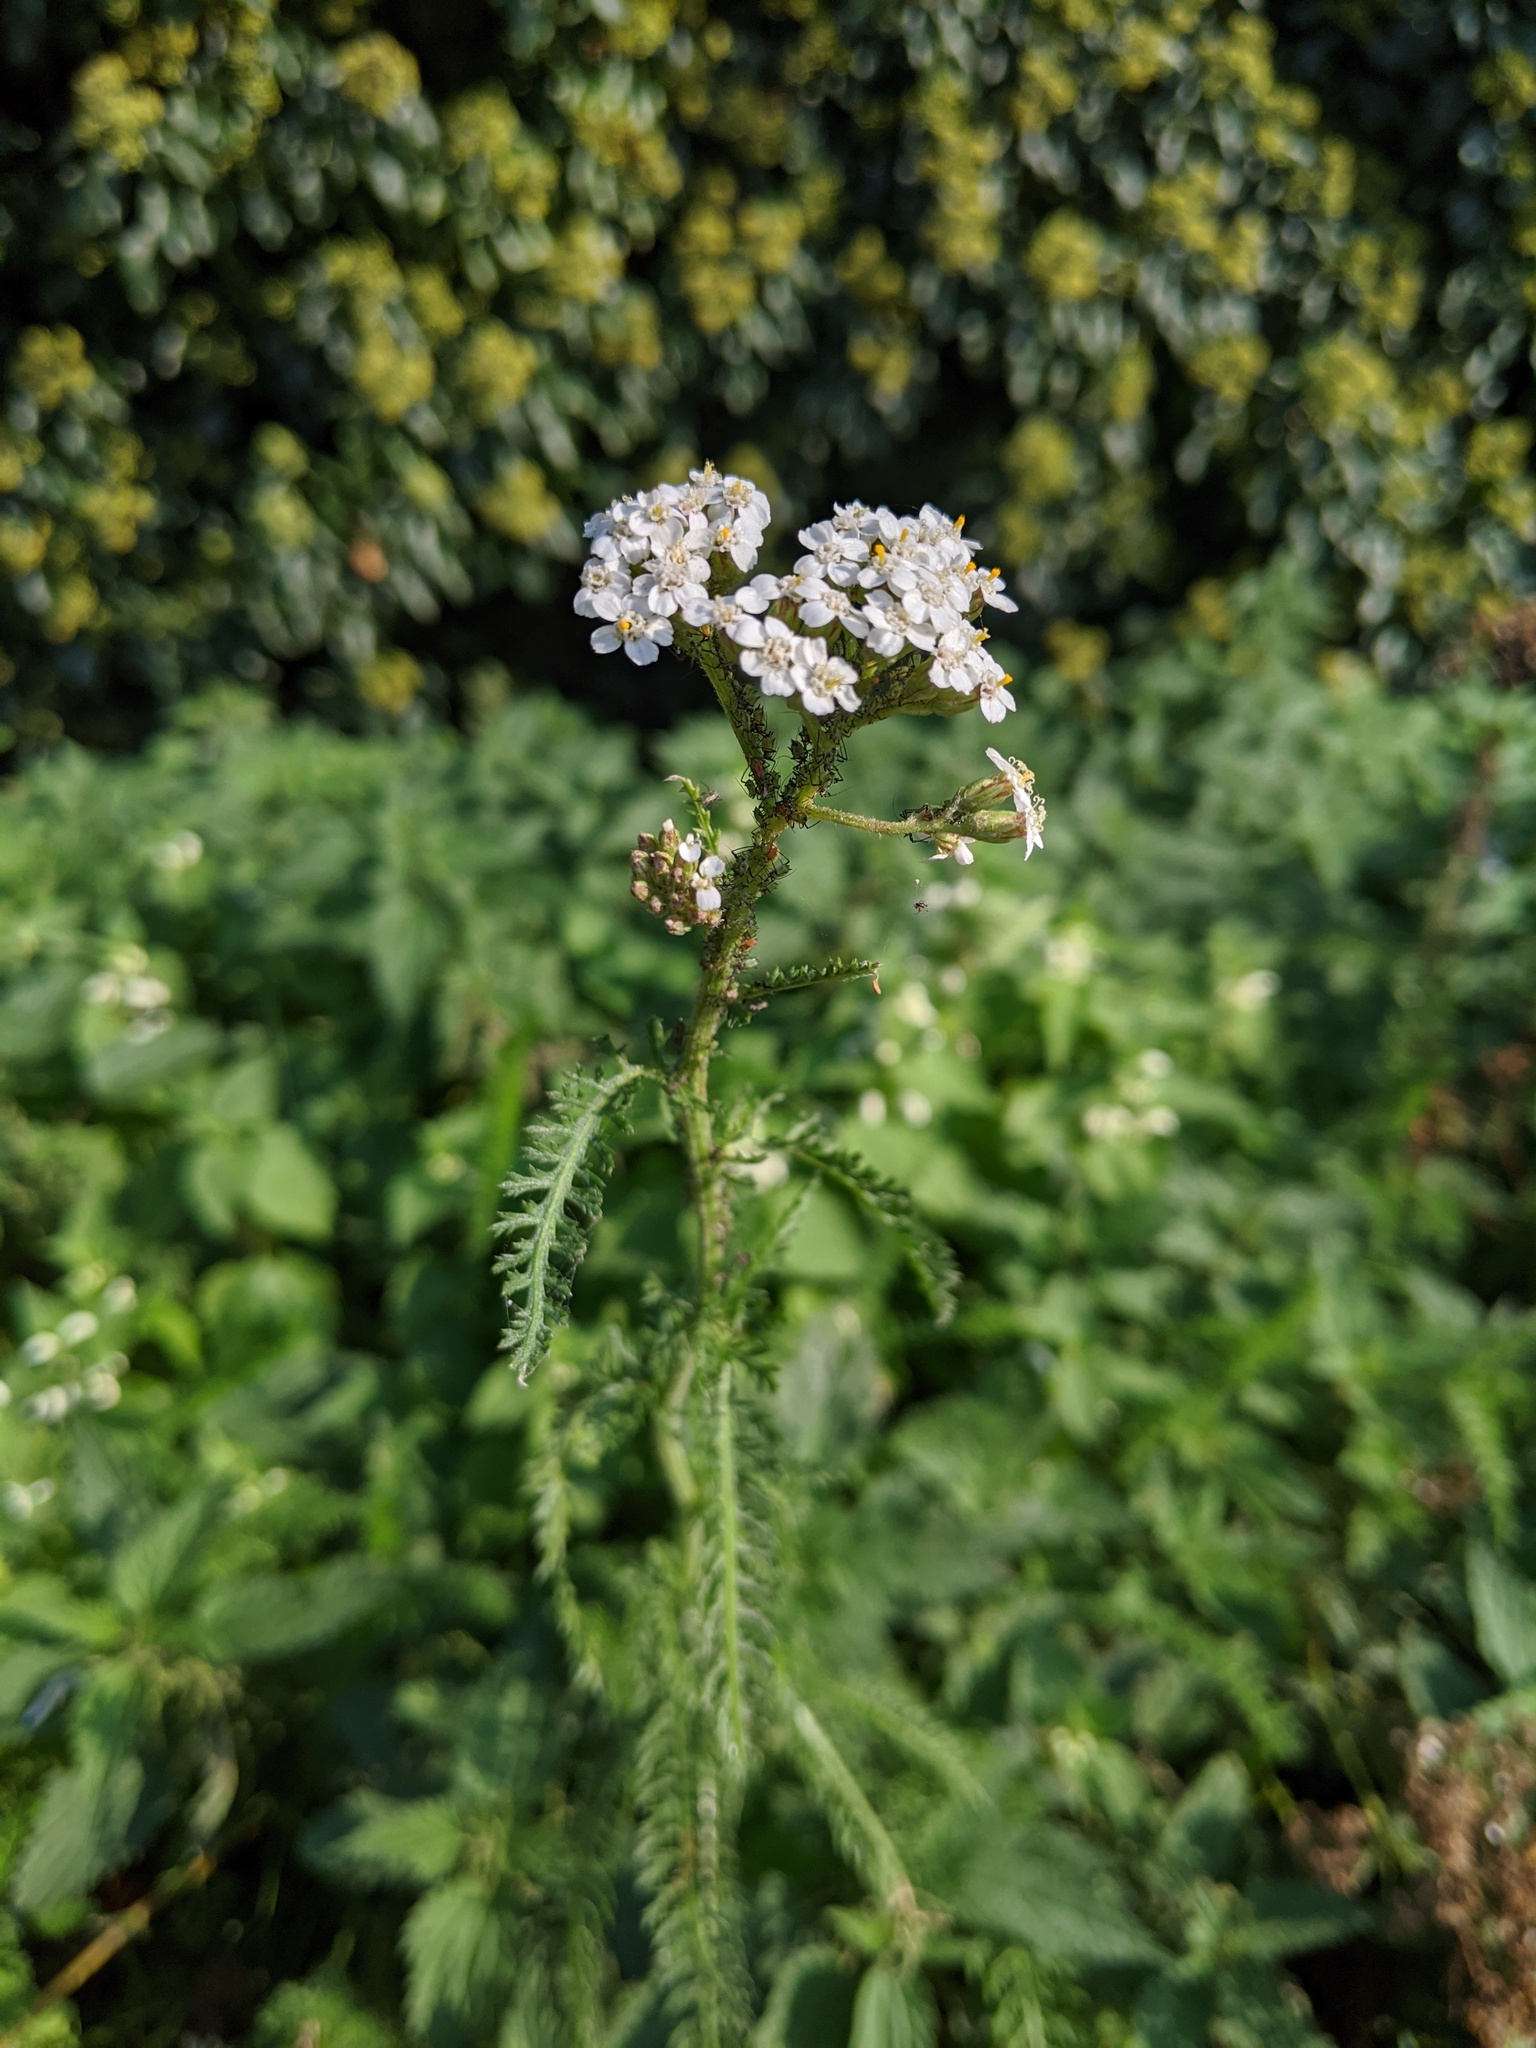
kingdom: Plantae
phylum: Tracheophyta
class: Magnoliopsida
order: Asterales
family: Asteraceae
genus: Achillea
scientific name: Achillea millefolium
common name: Yarrow
